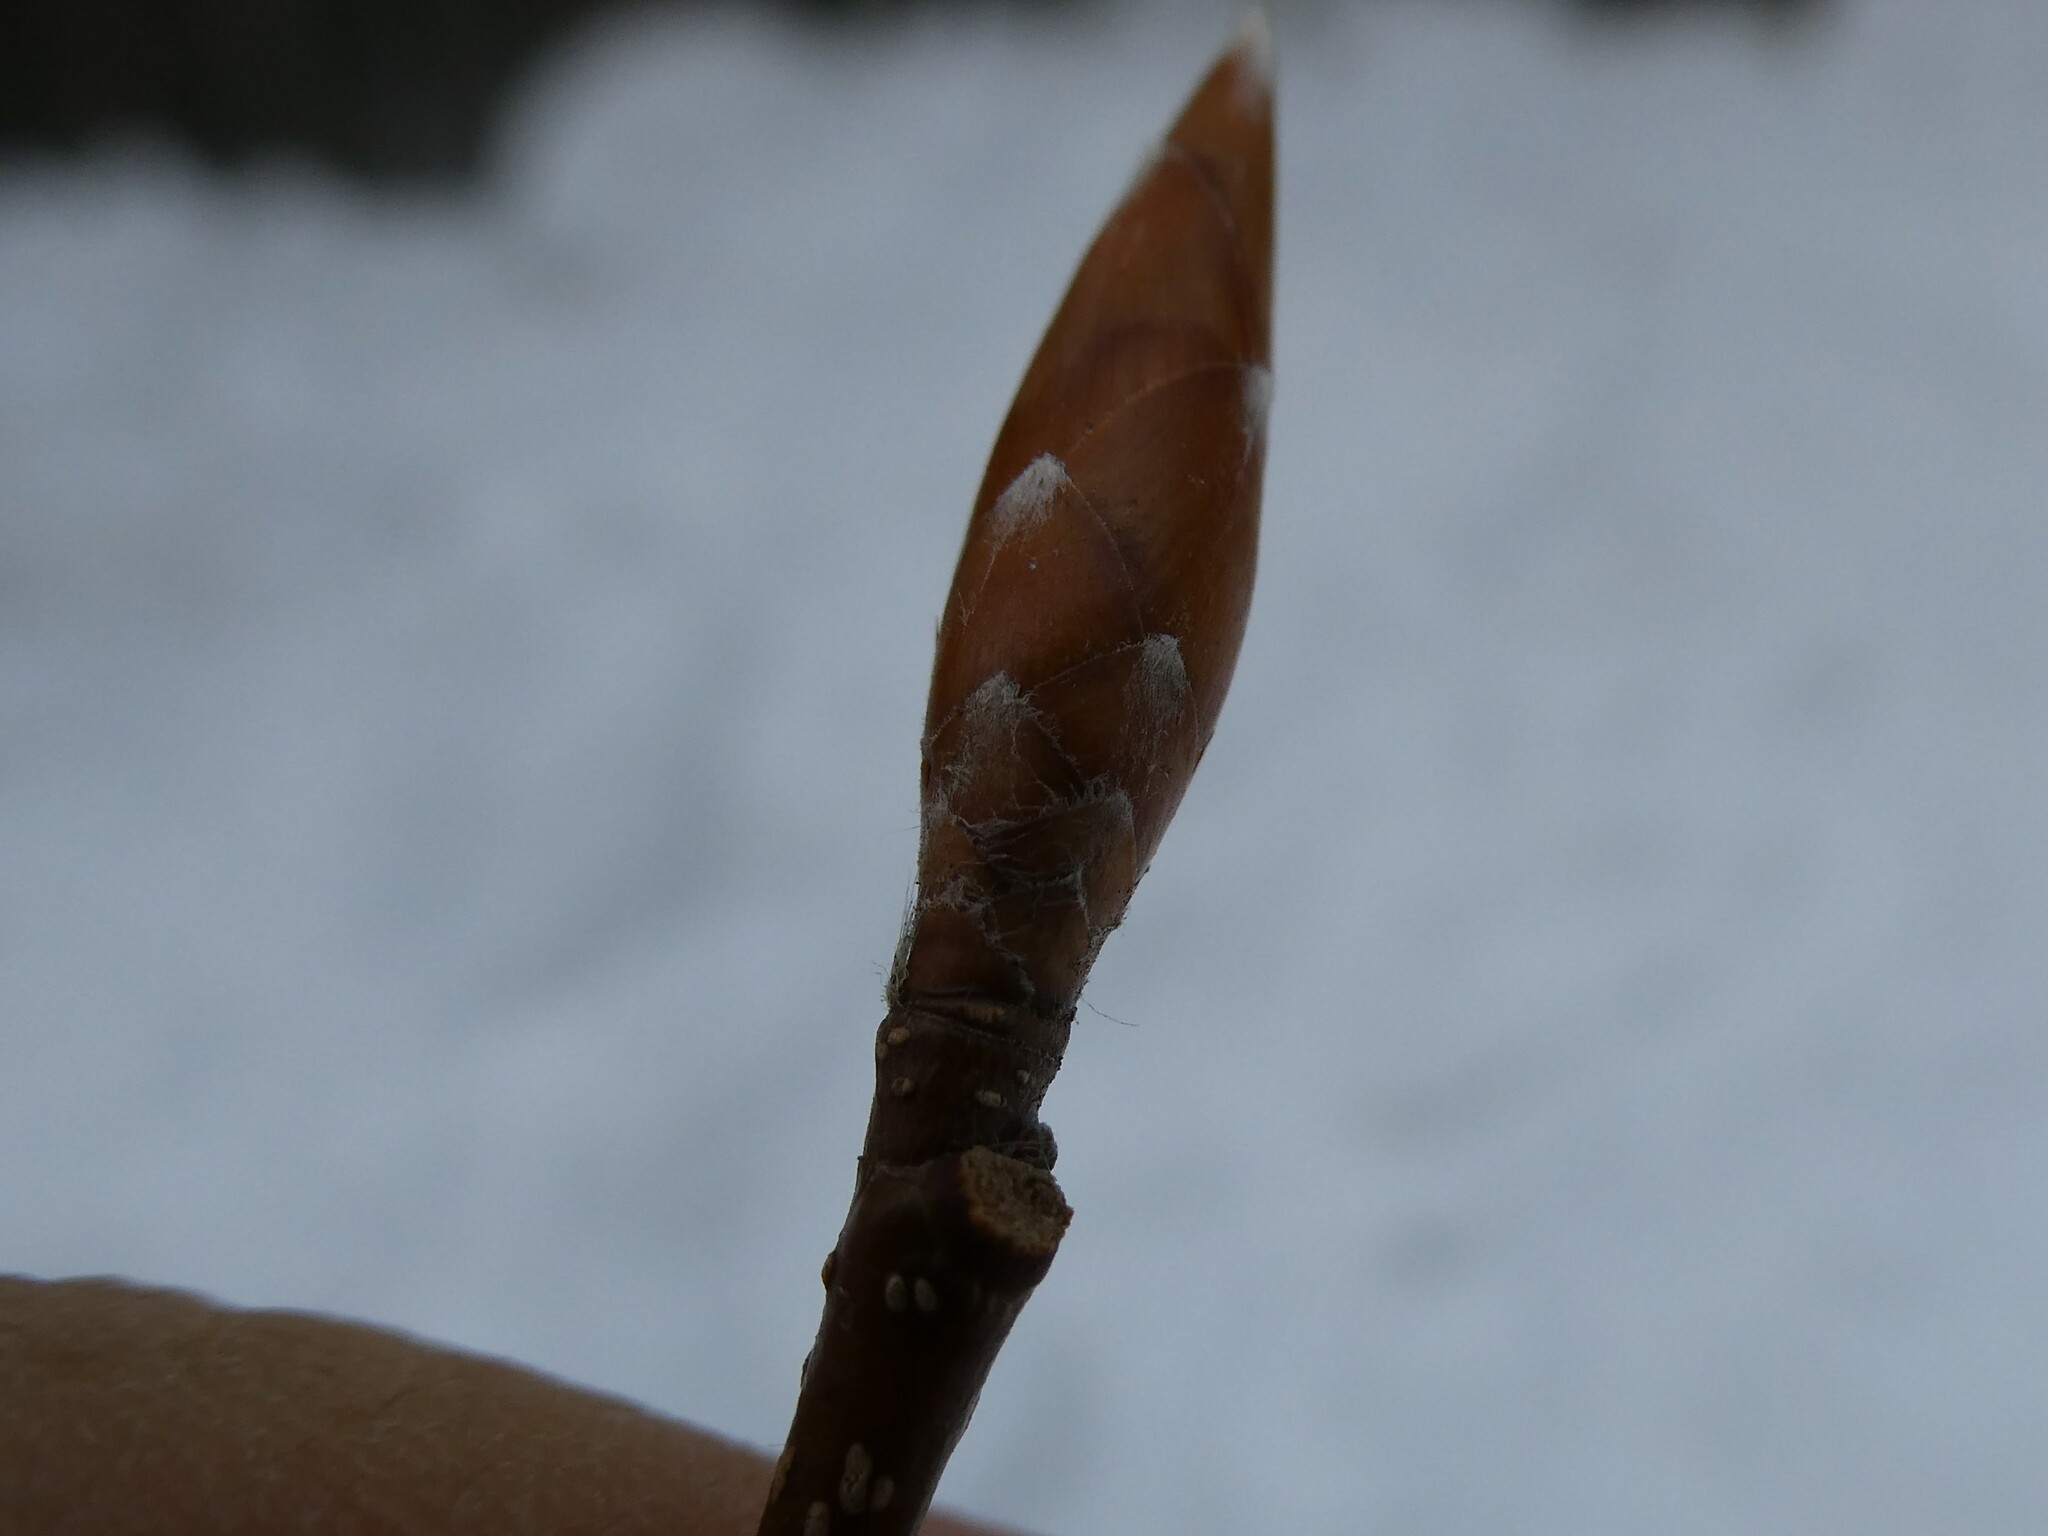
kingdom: Plantae
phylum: Tracheophyta
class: Magnoliopsida
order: Fagales
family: Fagaceae
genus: Fagus
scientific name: Fagus grandifolia
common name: American beech
